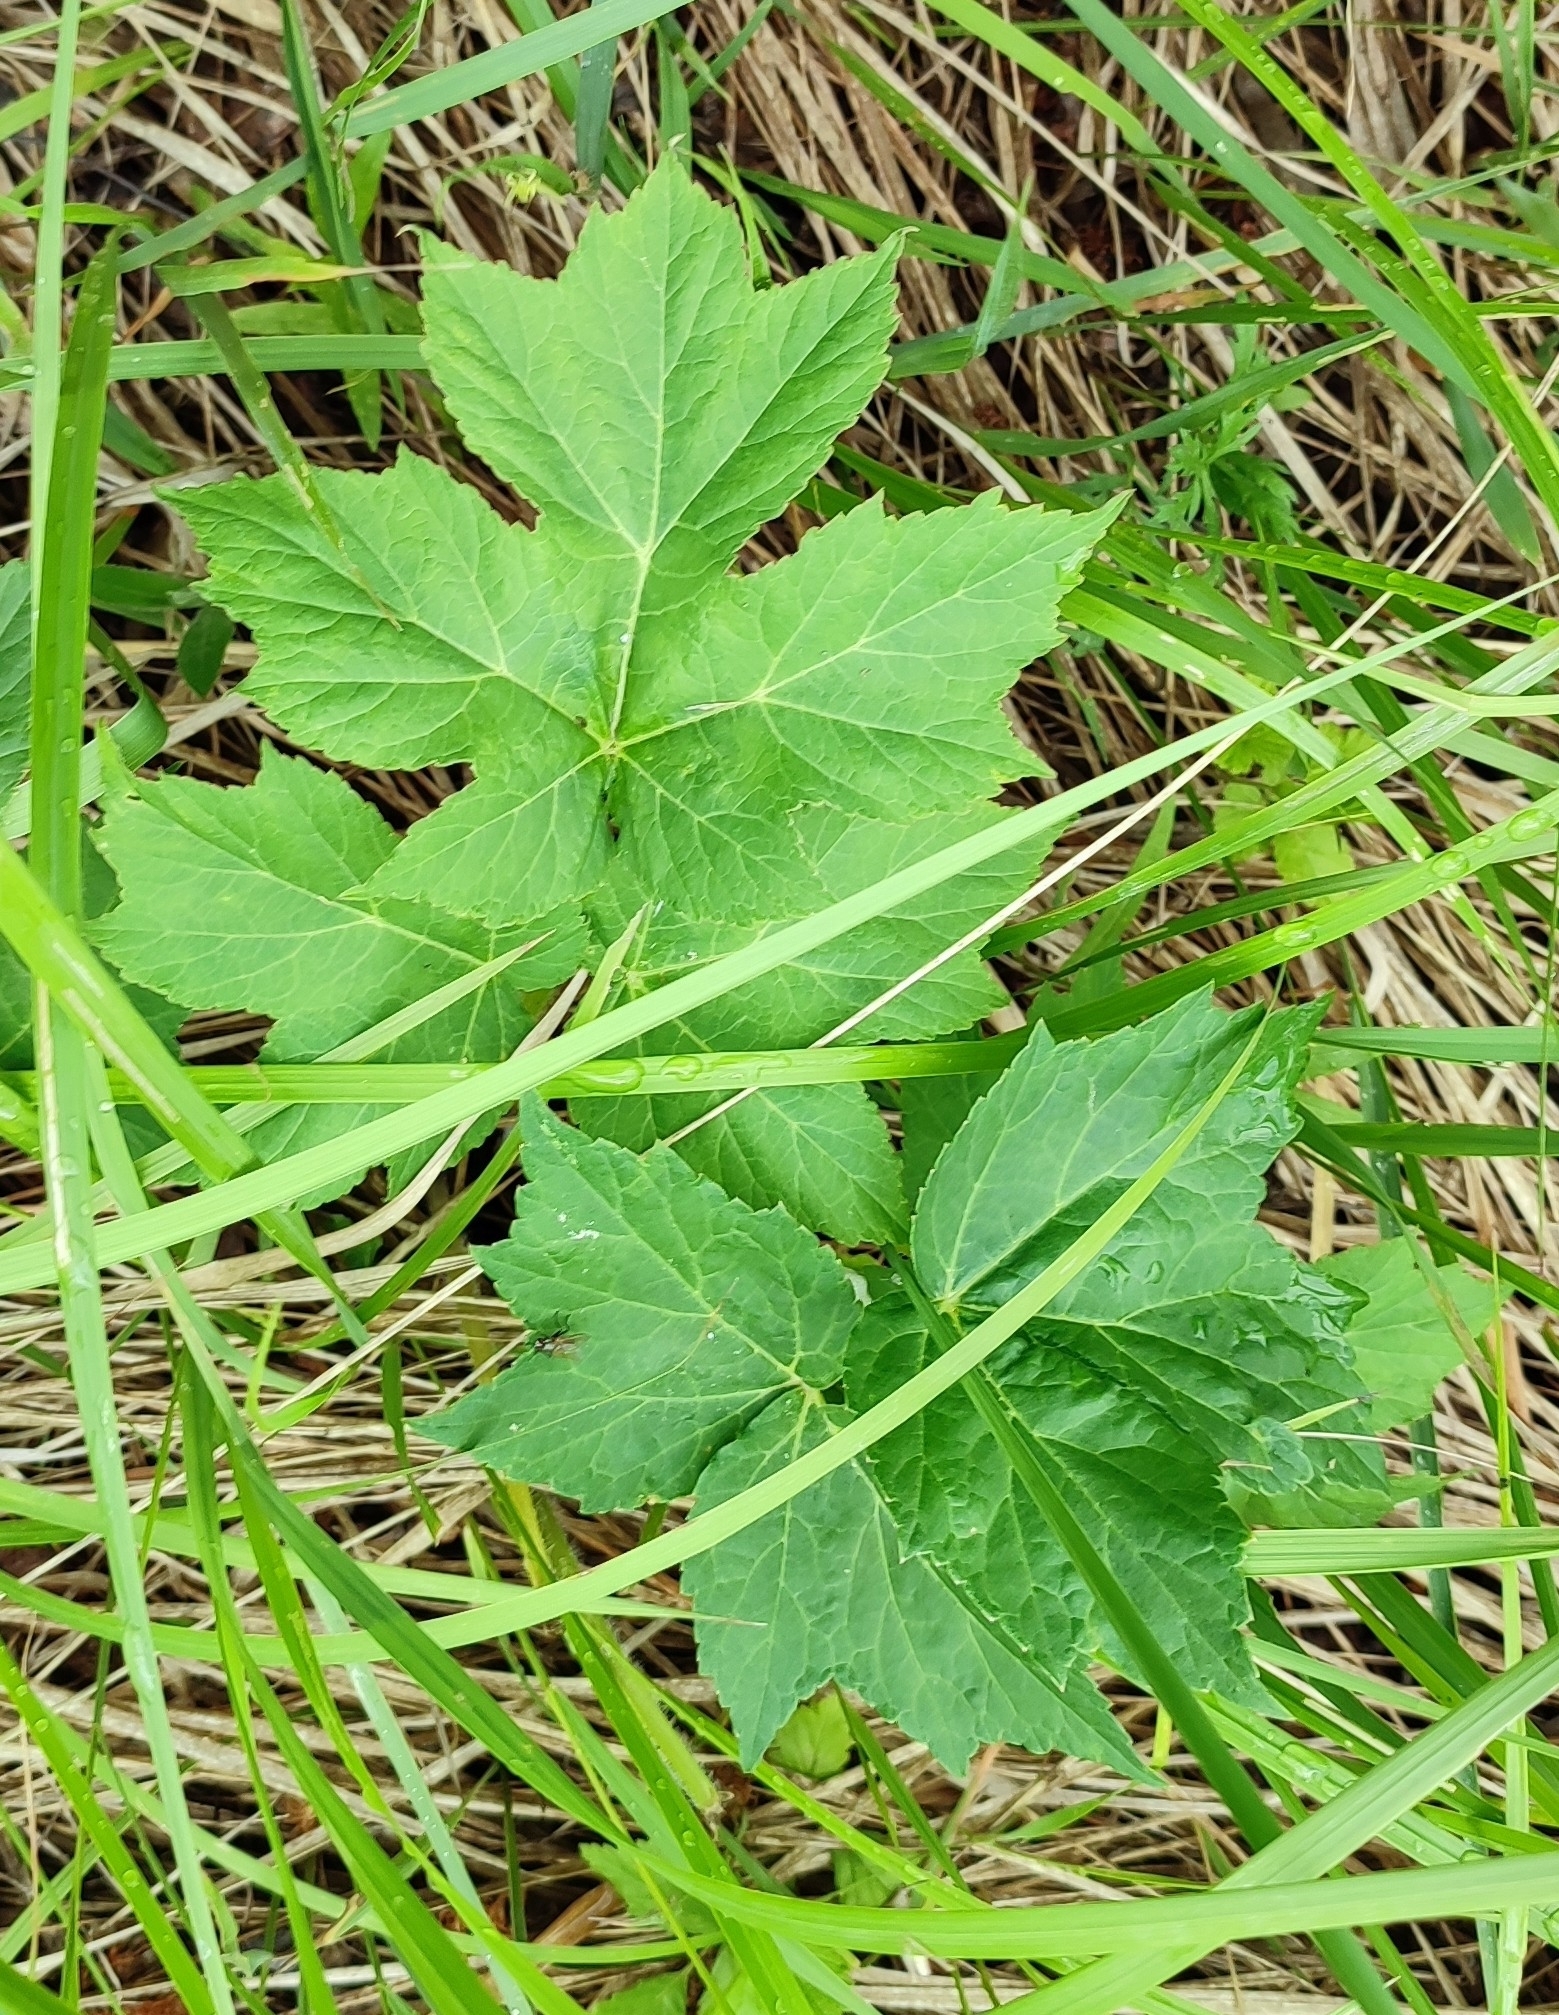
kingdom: Plantae
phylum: Tracheophyta
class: Magnoliopsida
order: Apiales
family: Apiaceae
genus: Heracleum
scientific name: Heracleum sphondylium
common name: Hogweed
